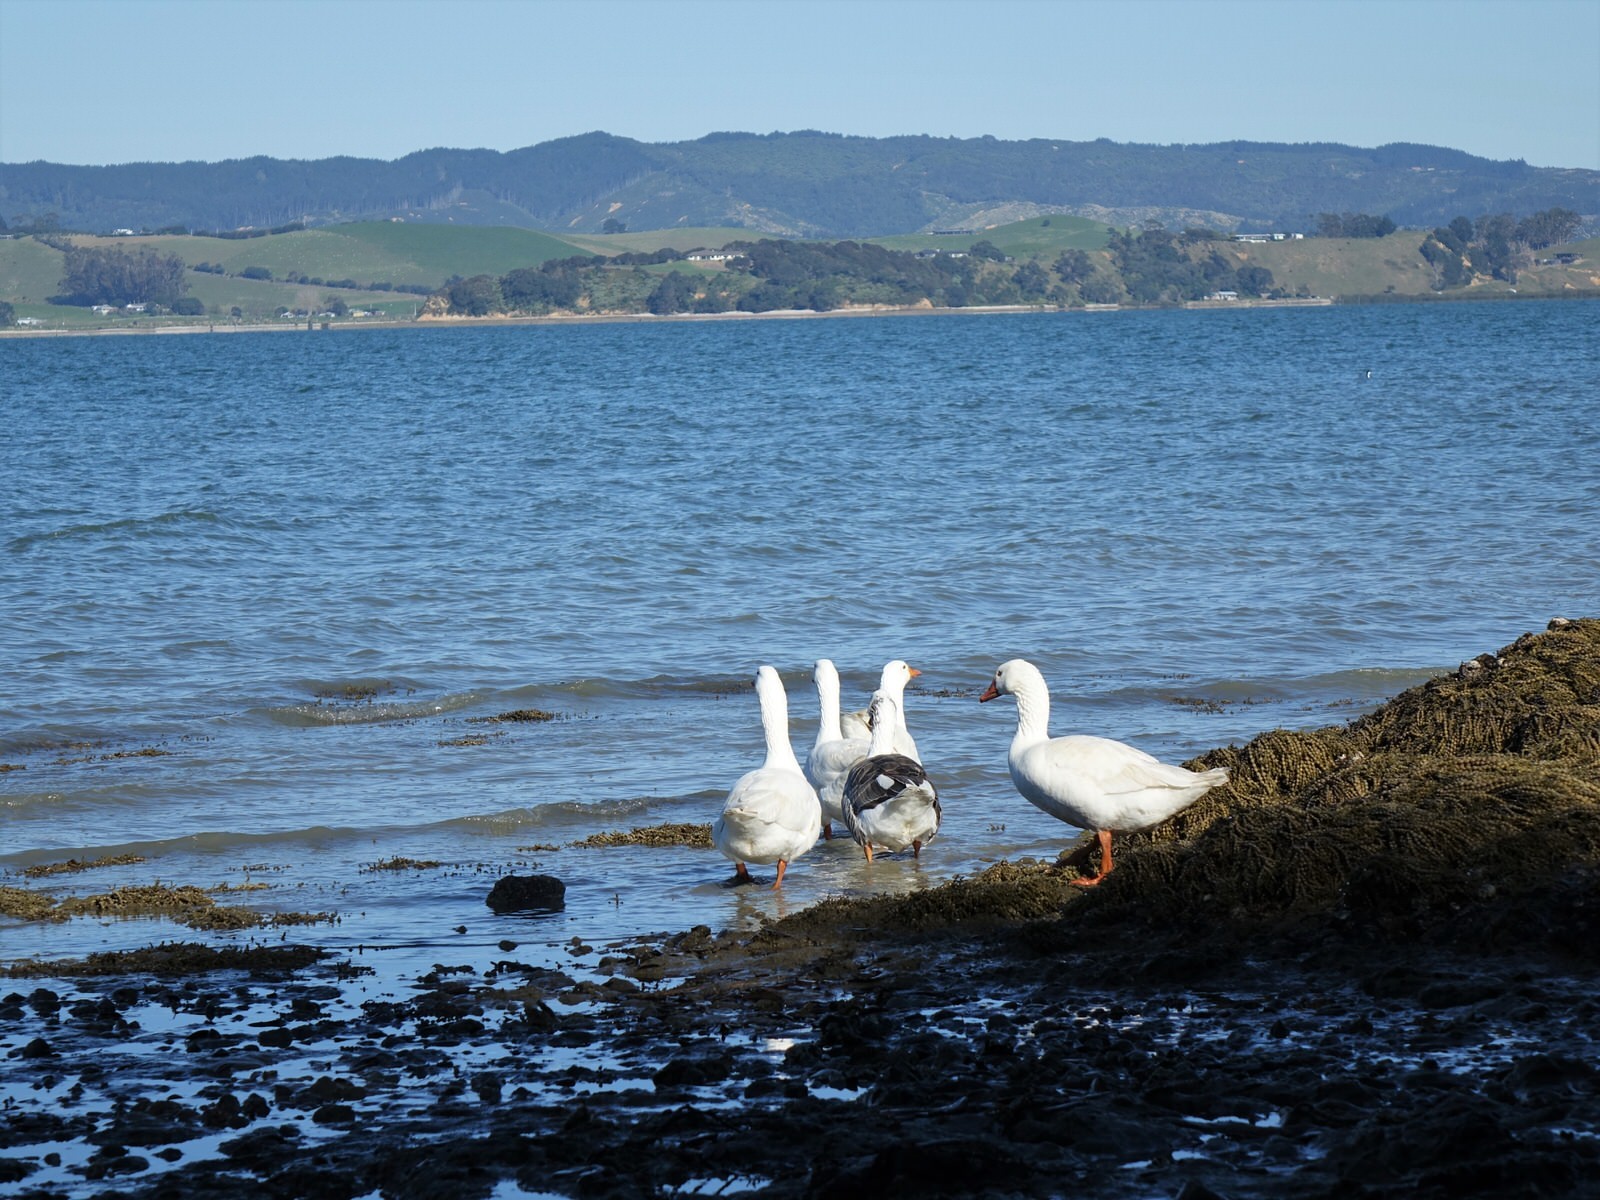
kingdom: Animalia
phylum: Chordata
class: Aves
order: Anseriformes
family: Anatidae
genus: Anser
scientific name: Anser anser
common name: Greylag goose
